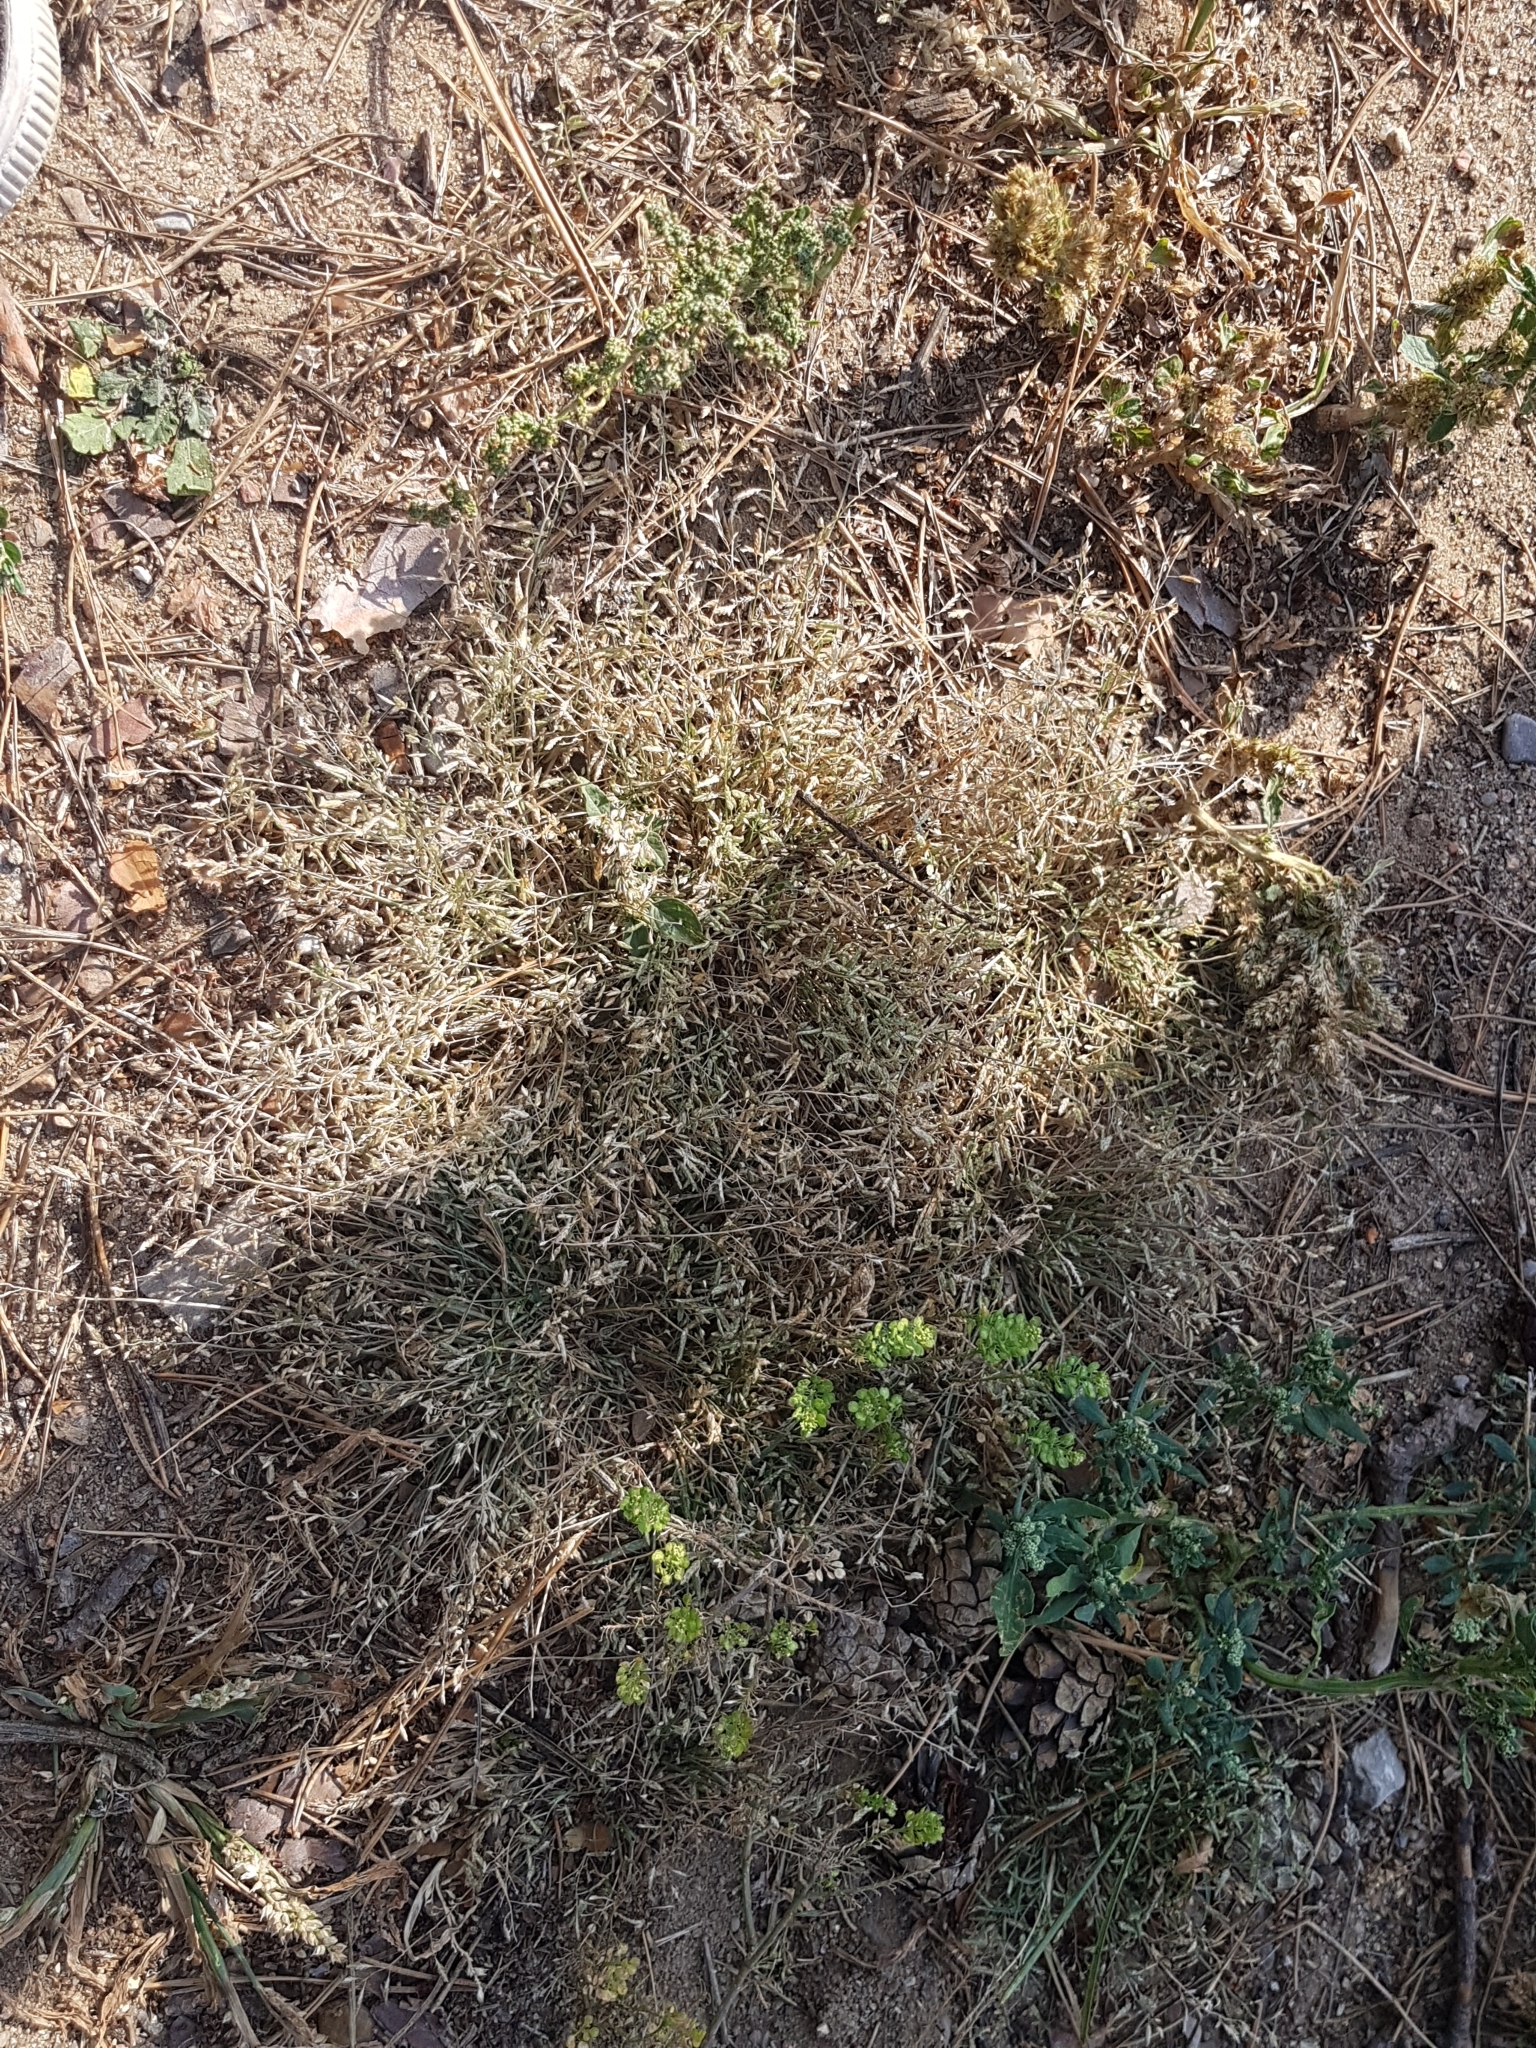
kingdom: Plantae
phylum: Tracheophyta
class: Liliopsida
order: Poales
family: Poaceae
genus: Eragrostis
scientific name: Eragrostis minor
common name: Small love-grass
